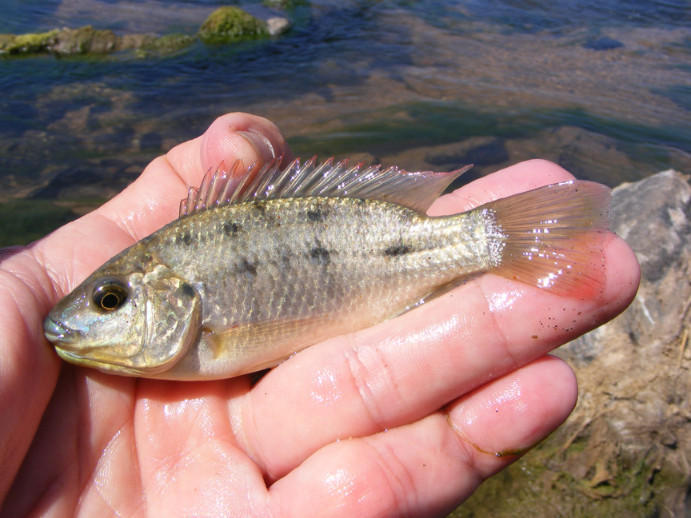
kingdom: Animalia
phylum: Chordata
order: Perciformes
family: Cichlidae
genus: Oreochromis
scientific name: Oreochromis mossambicus
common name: Mozambique tilapia
